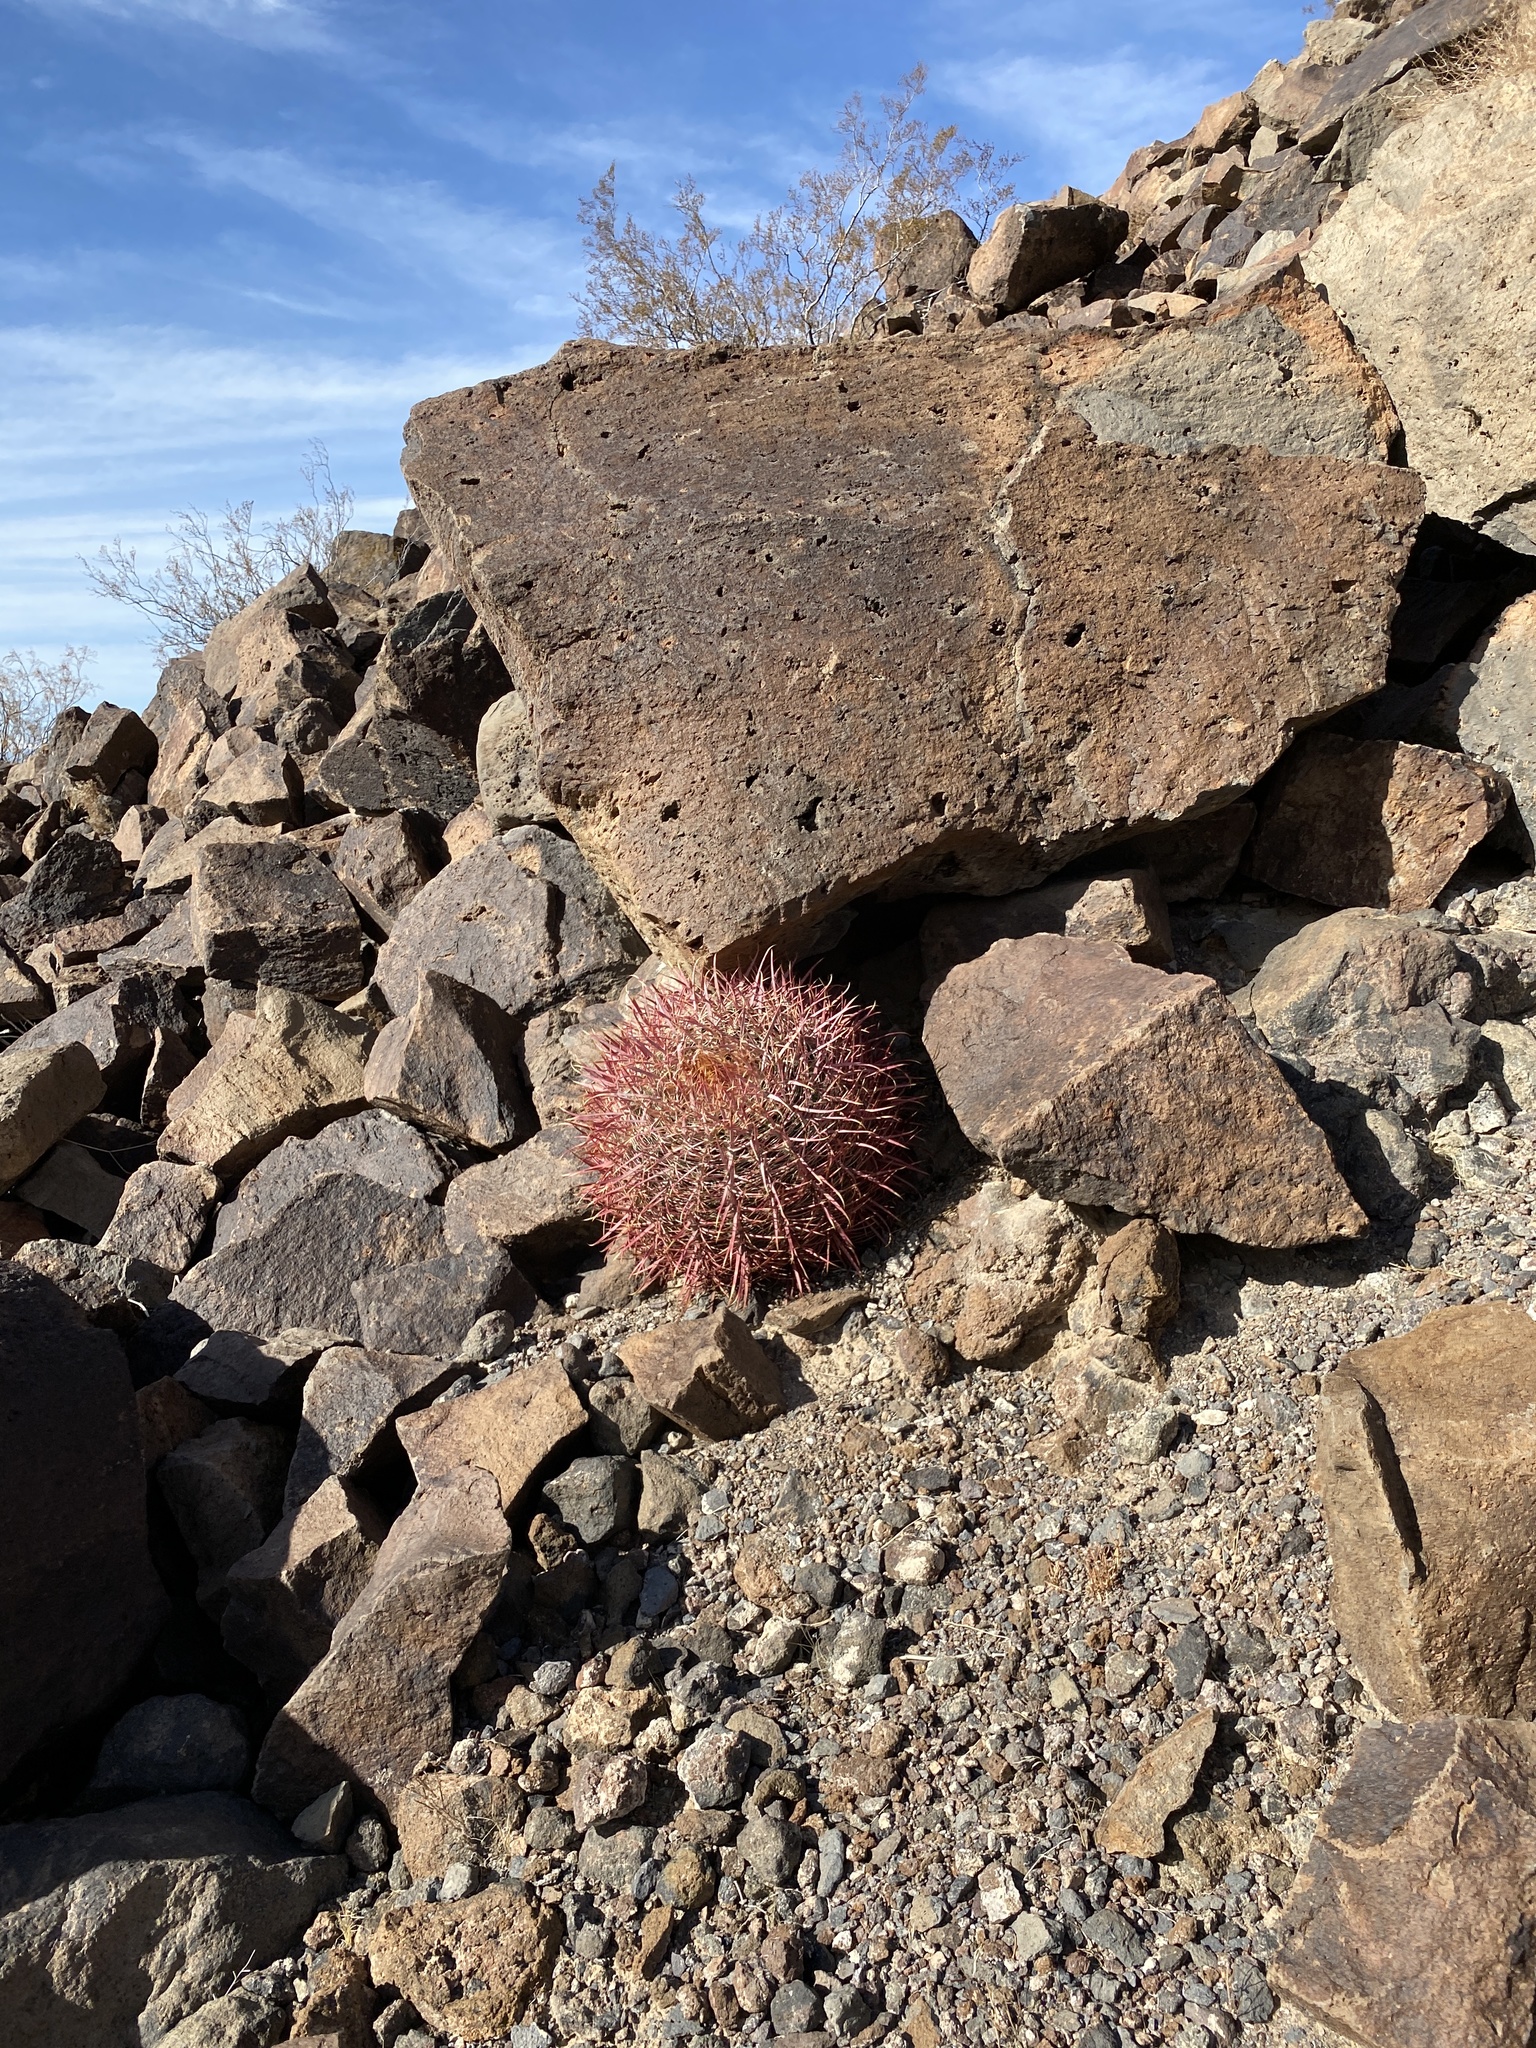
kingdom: Plantae
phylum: Tracheophyta
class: Magnoliopsida
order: Caryophyllales
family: Cactaceae
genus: Ferocactus
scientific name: Ferocactus cylindraceus
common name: California barrel cactus
